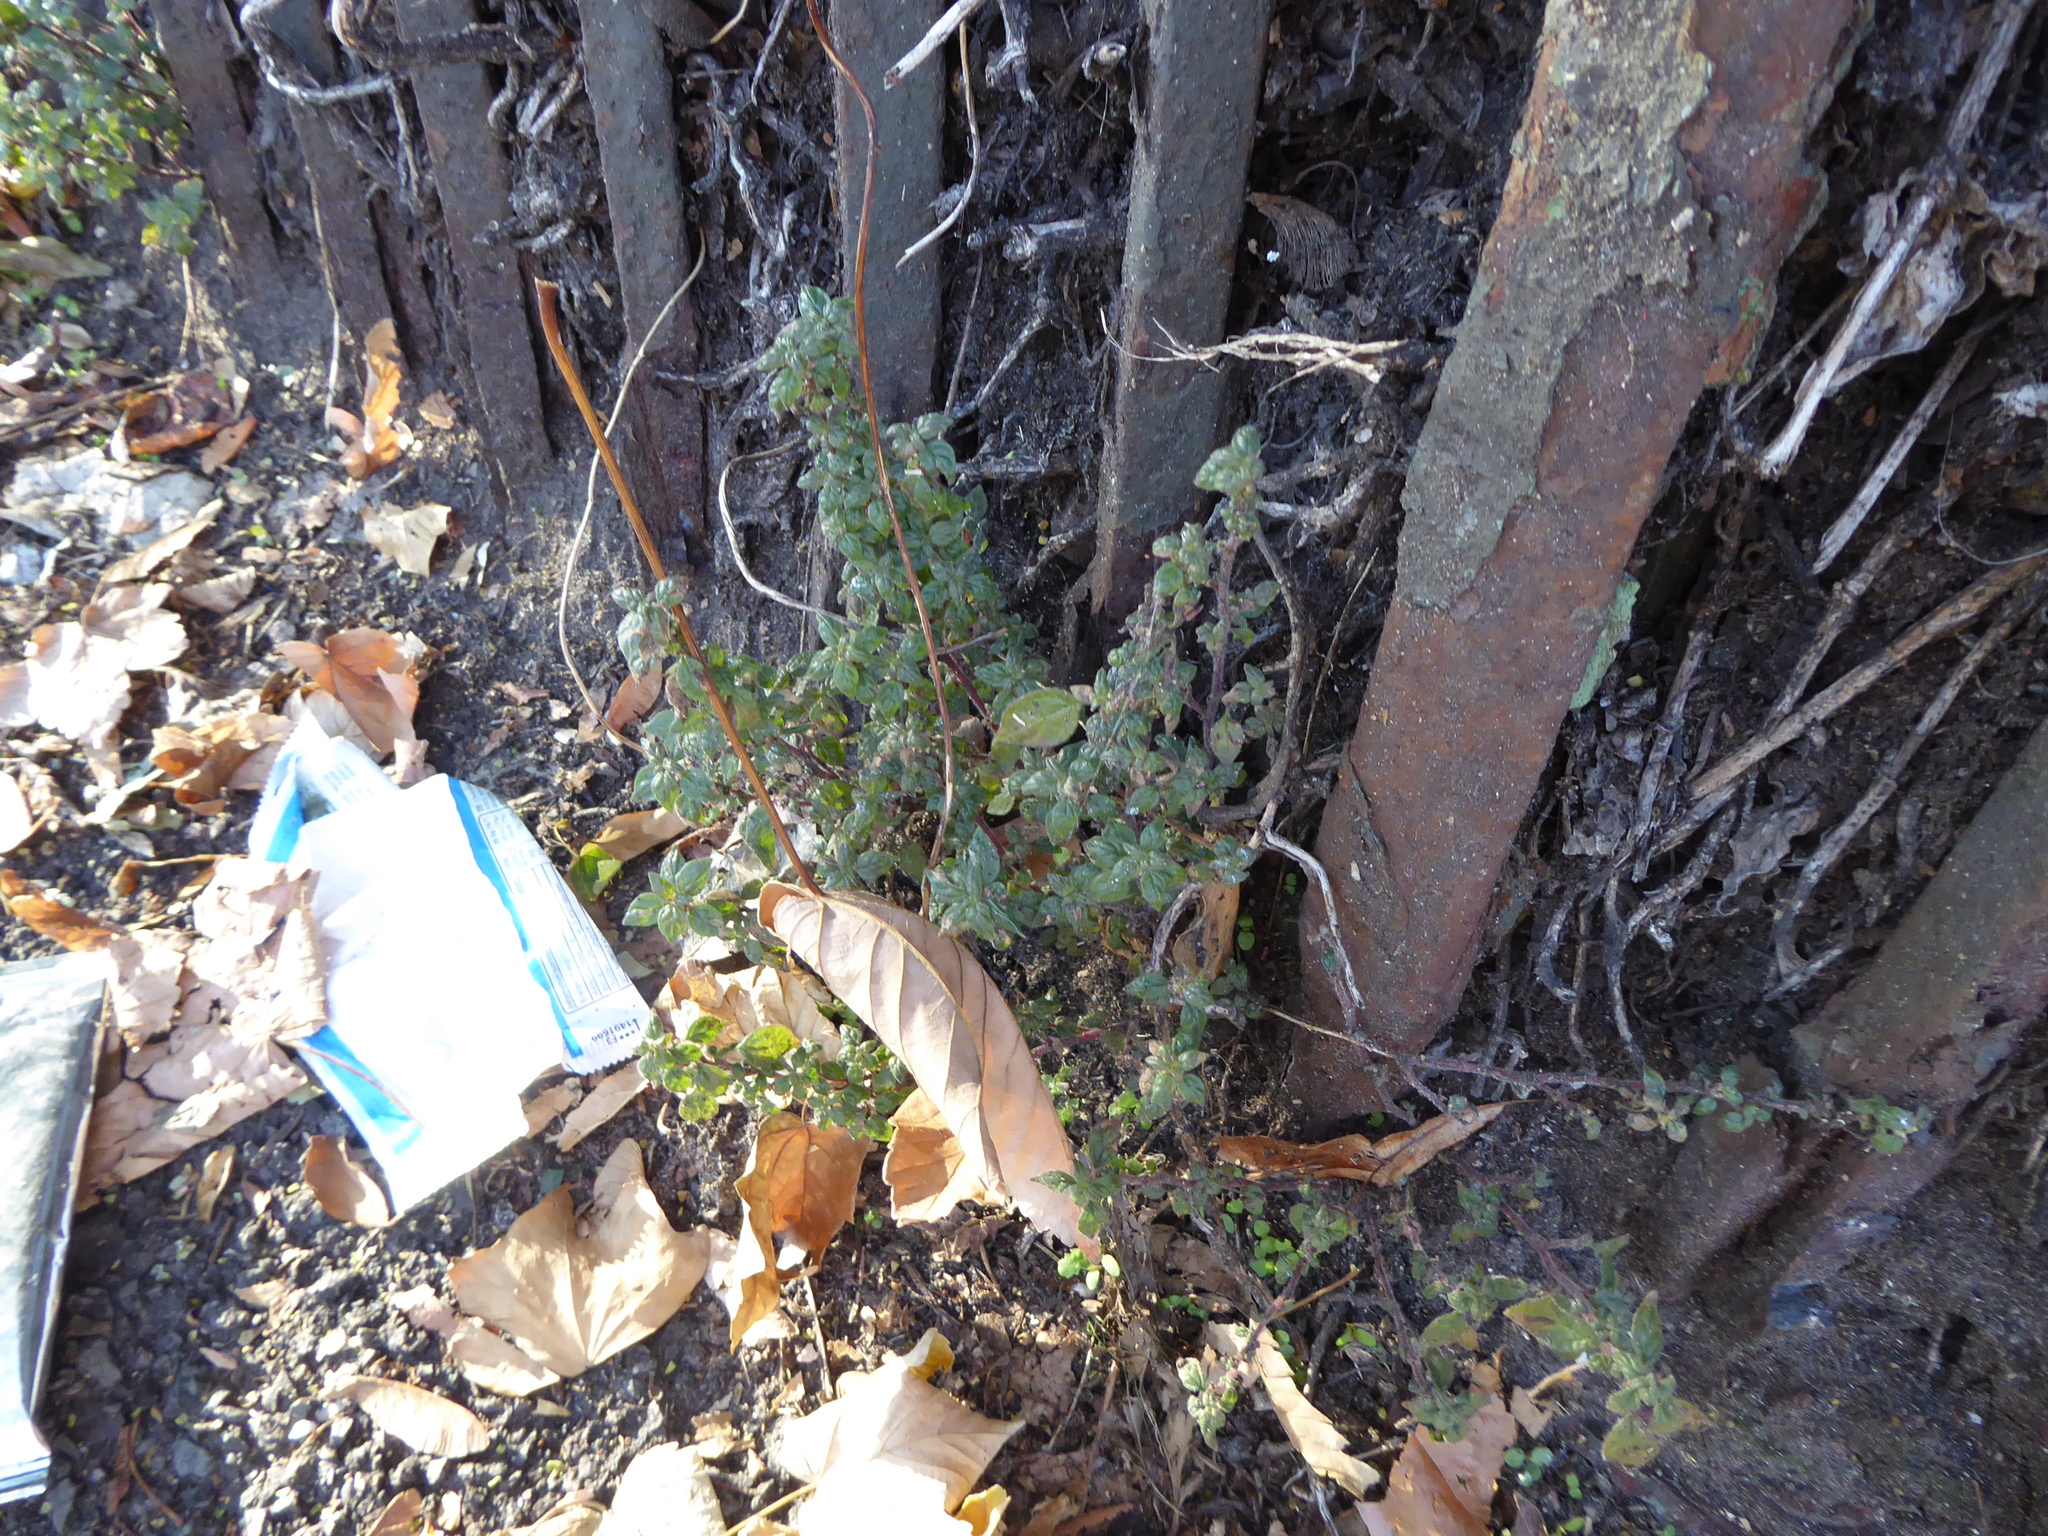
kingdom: Plantae
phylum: Tracheophyta
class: Magnoliopsida
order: Rosales
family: Urticaceae
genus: Parietaria
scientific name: Parietaria judaica
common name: Pellitory-of-the-wall
